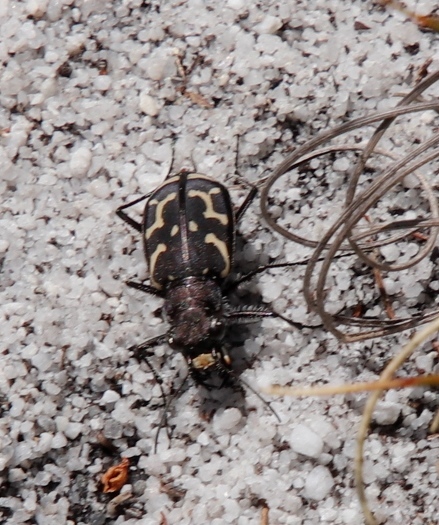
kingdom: Animalia
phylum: Arthropoda
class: Insecta
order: Coleoptera
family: Carabidae
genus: Cicindela
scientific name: Cicindela lurida
